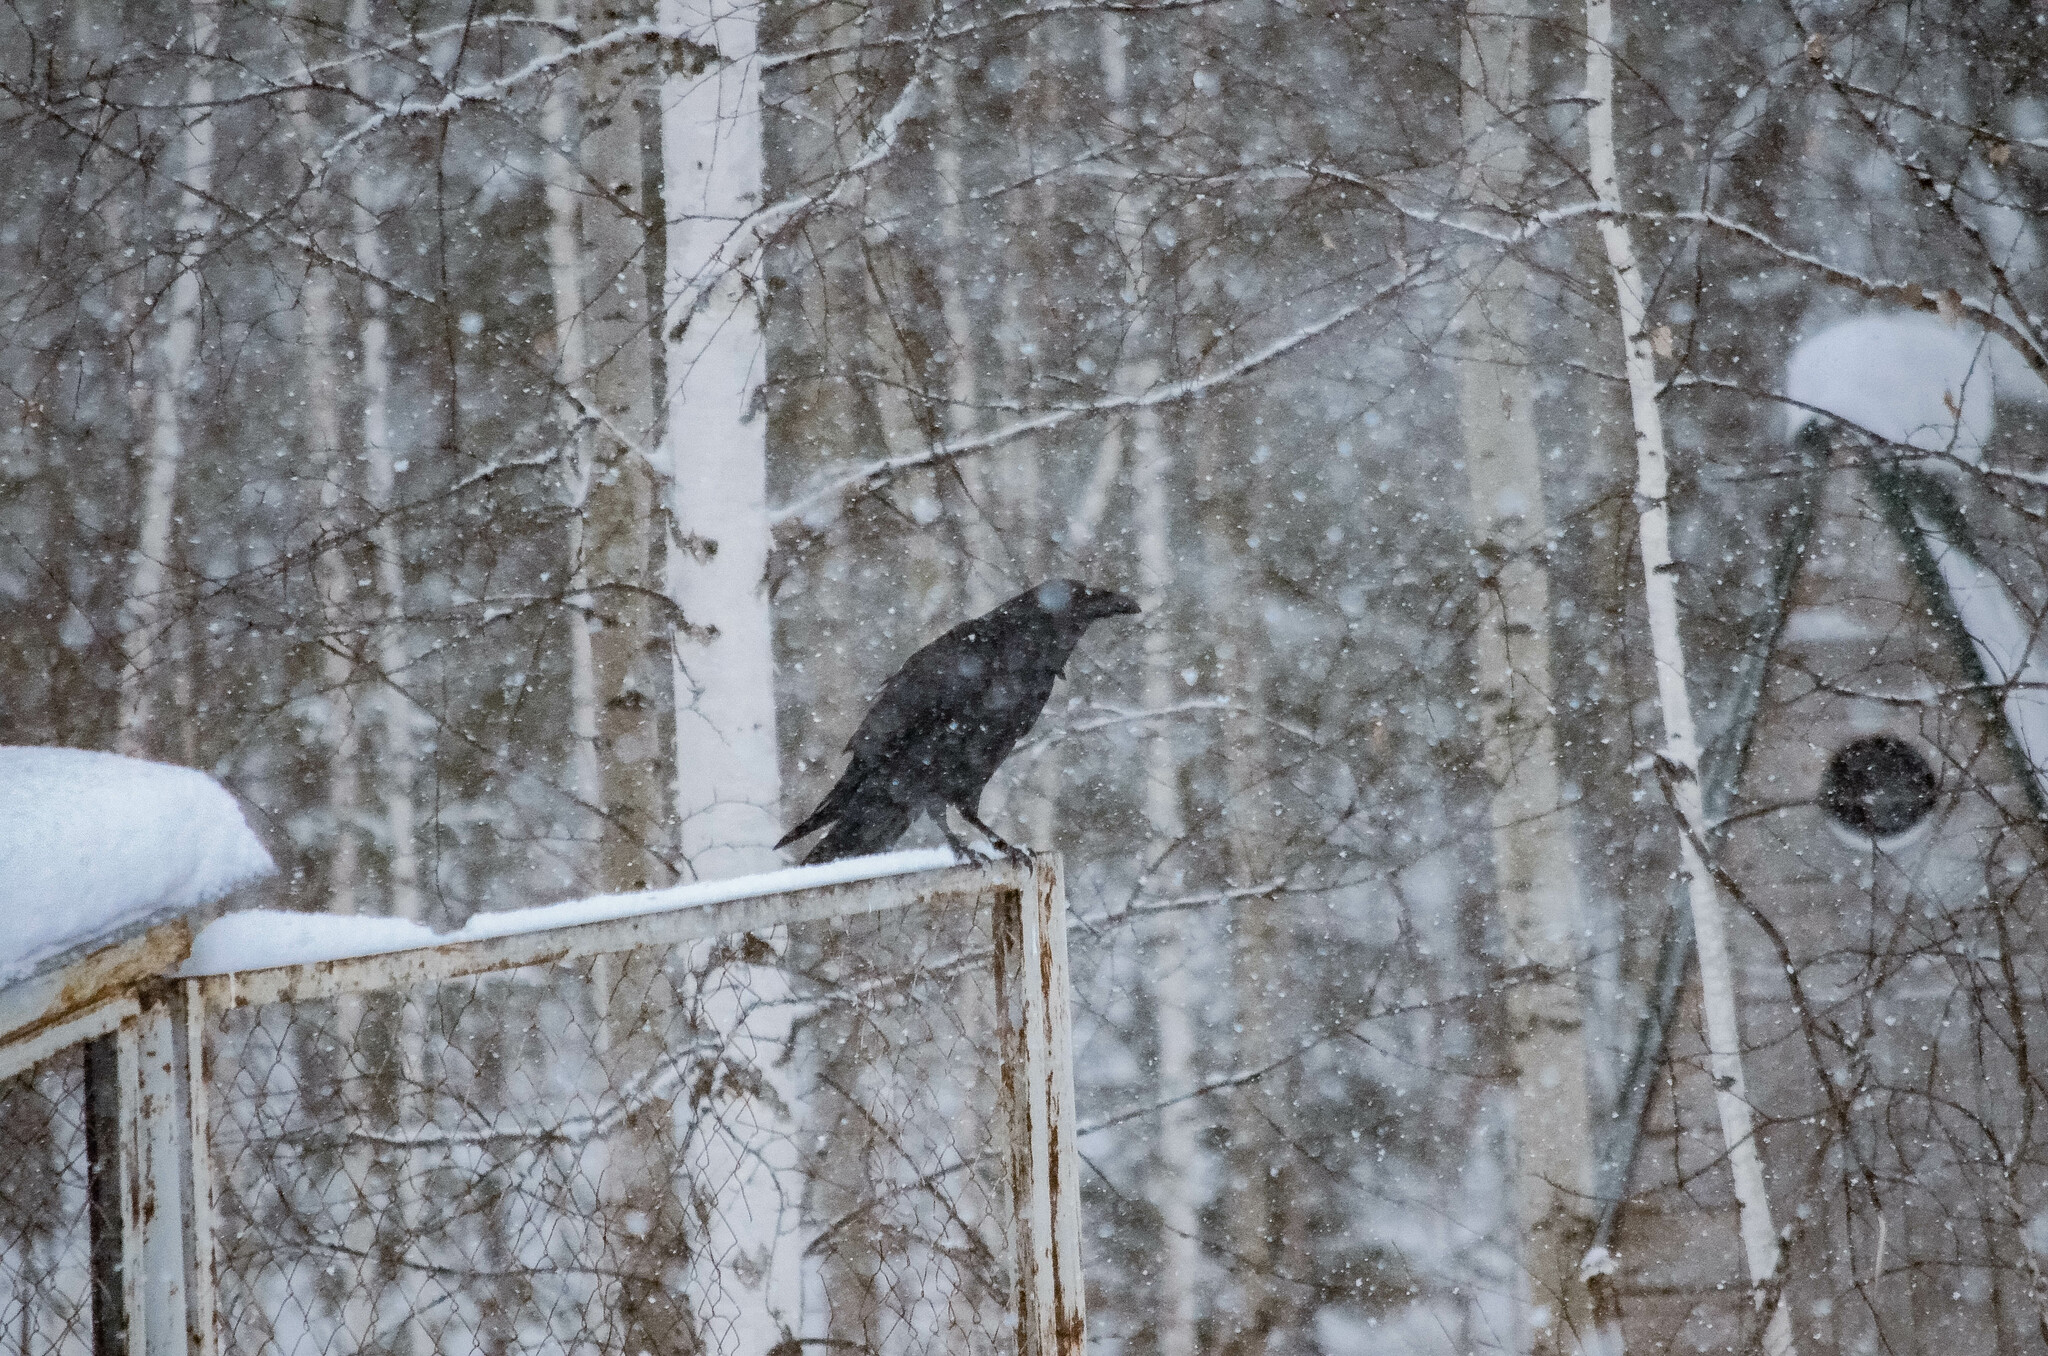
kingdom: Animalia
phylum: Chordata
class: Aves
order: Passeriformes
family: Corvidae
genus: Corvus
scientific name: Corvus corax
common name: Common raven
